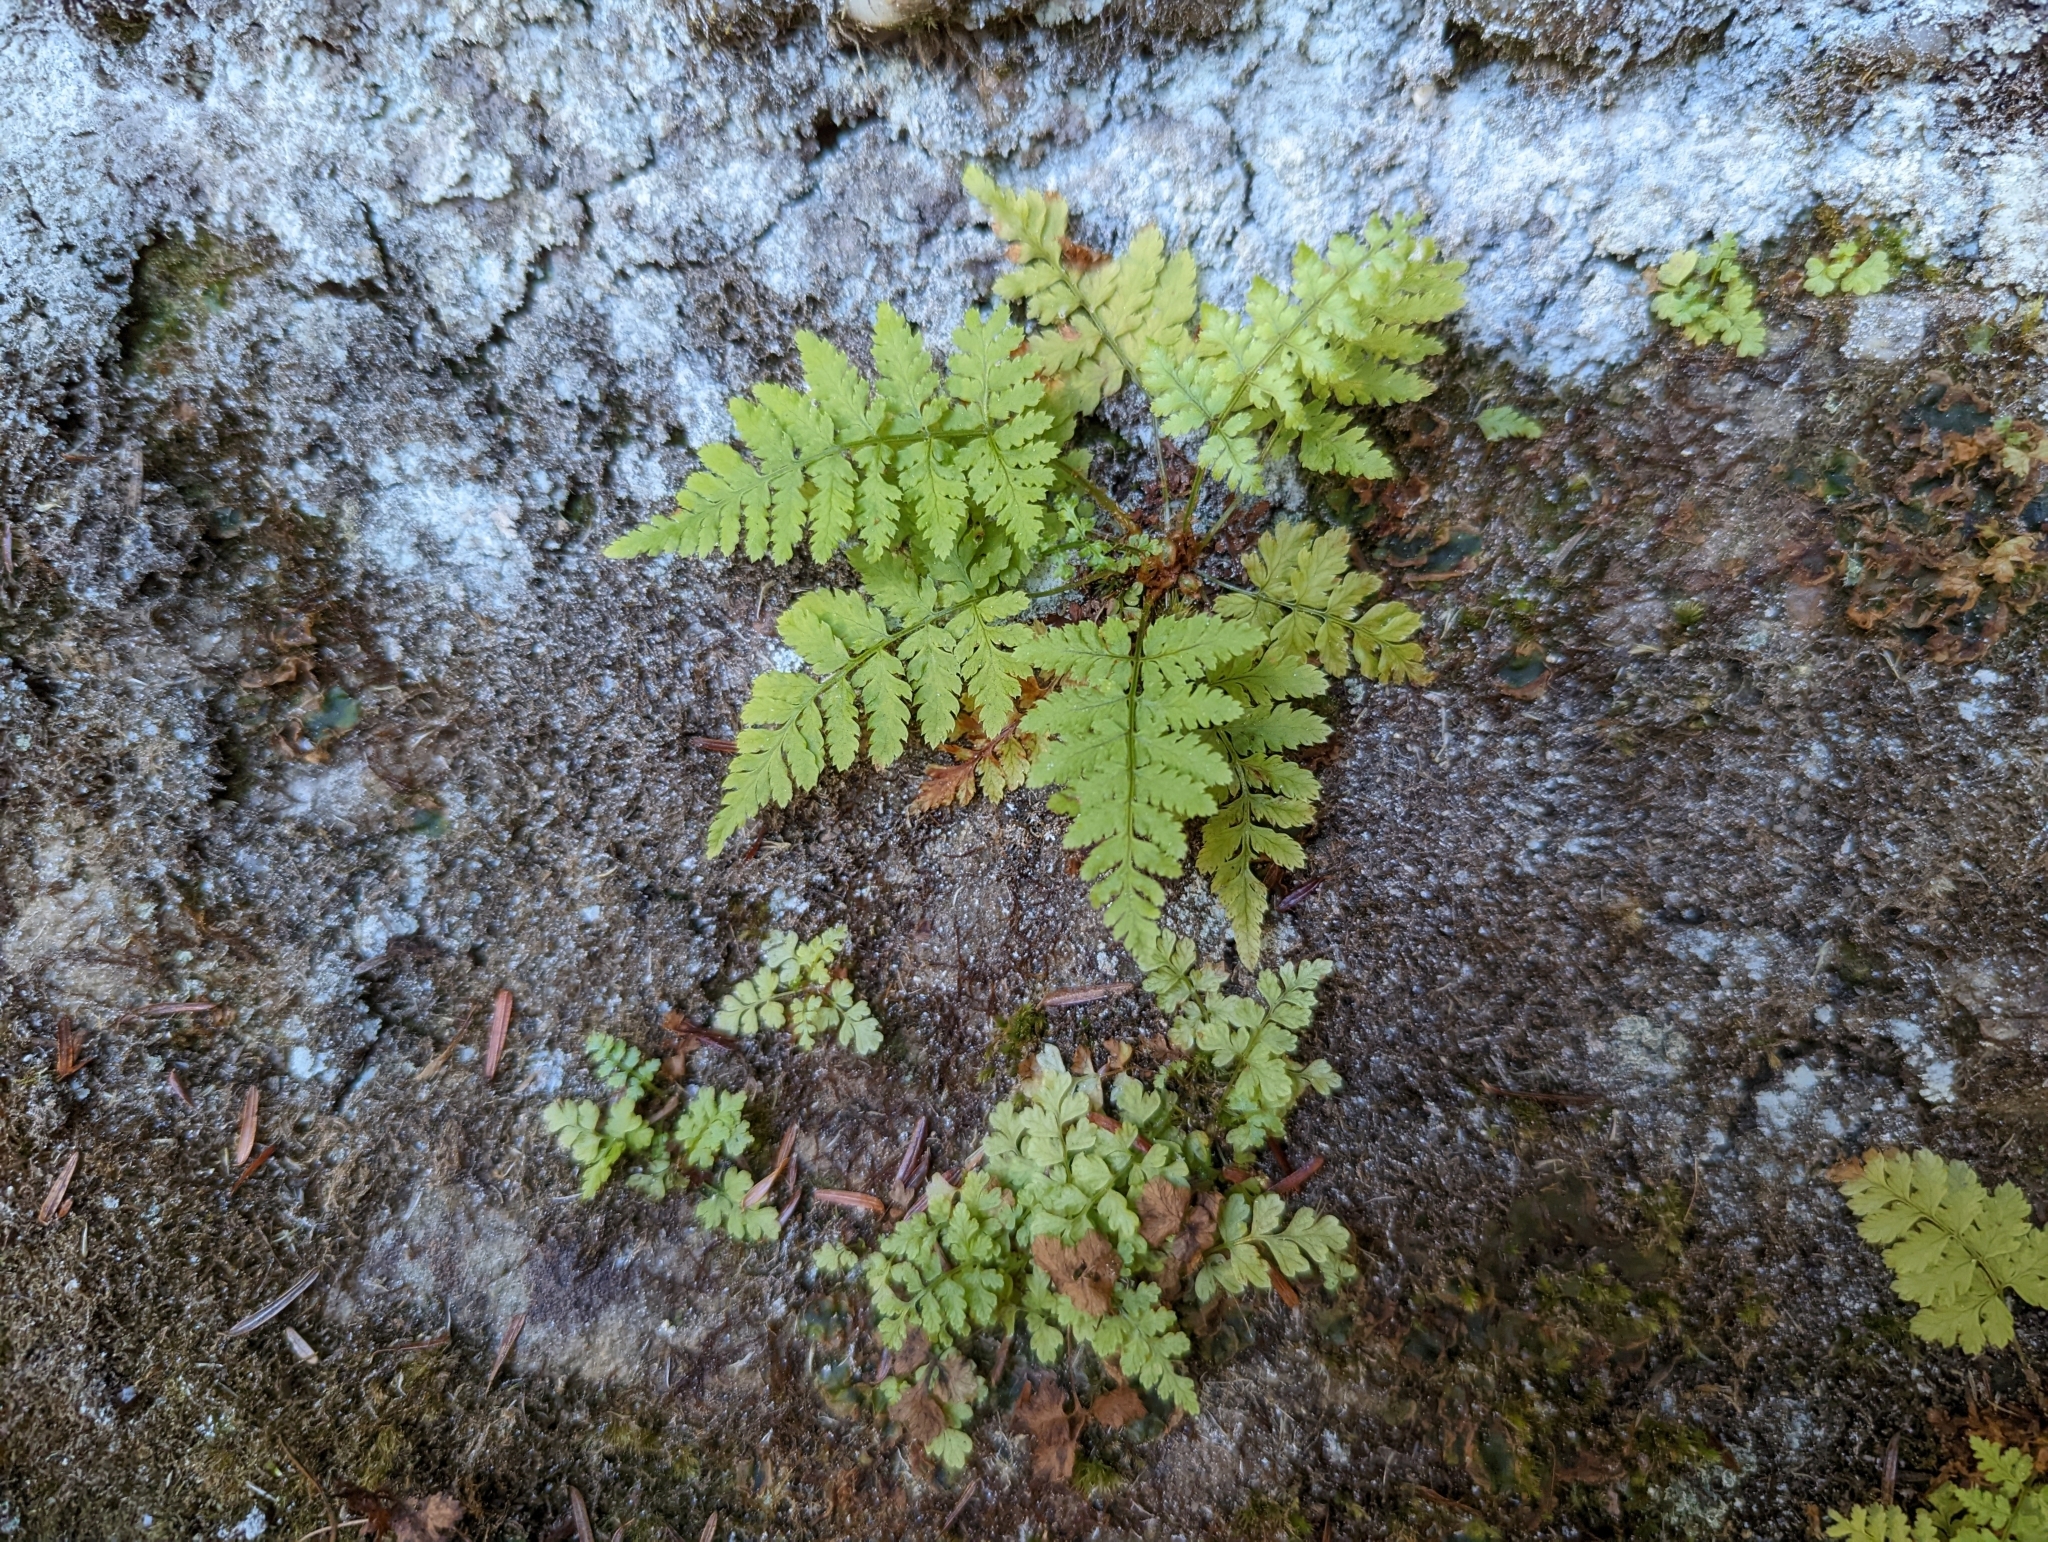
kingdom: Plantae
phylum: Tracheophyta
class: Polypodiopsida
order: Polypodiales
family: Dryopteridaceae
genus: Dryopteris
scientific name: Dryopteris intermedia
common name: Evergreen wood fern
